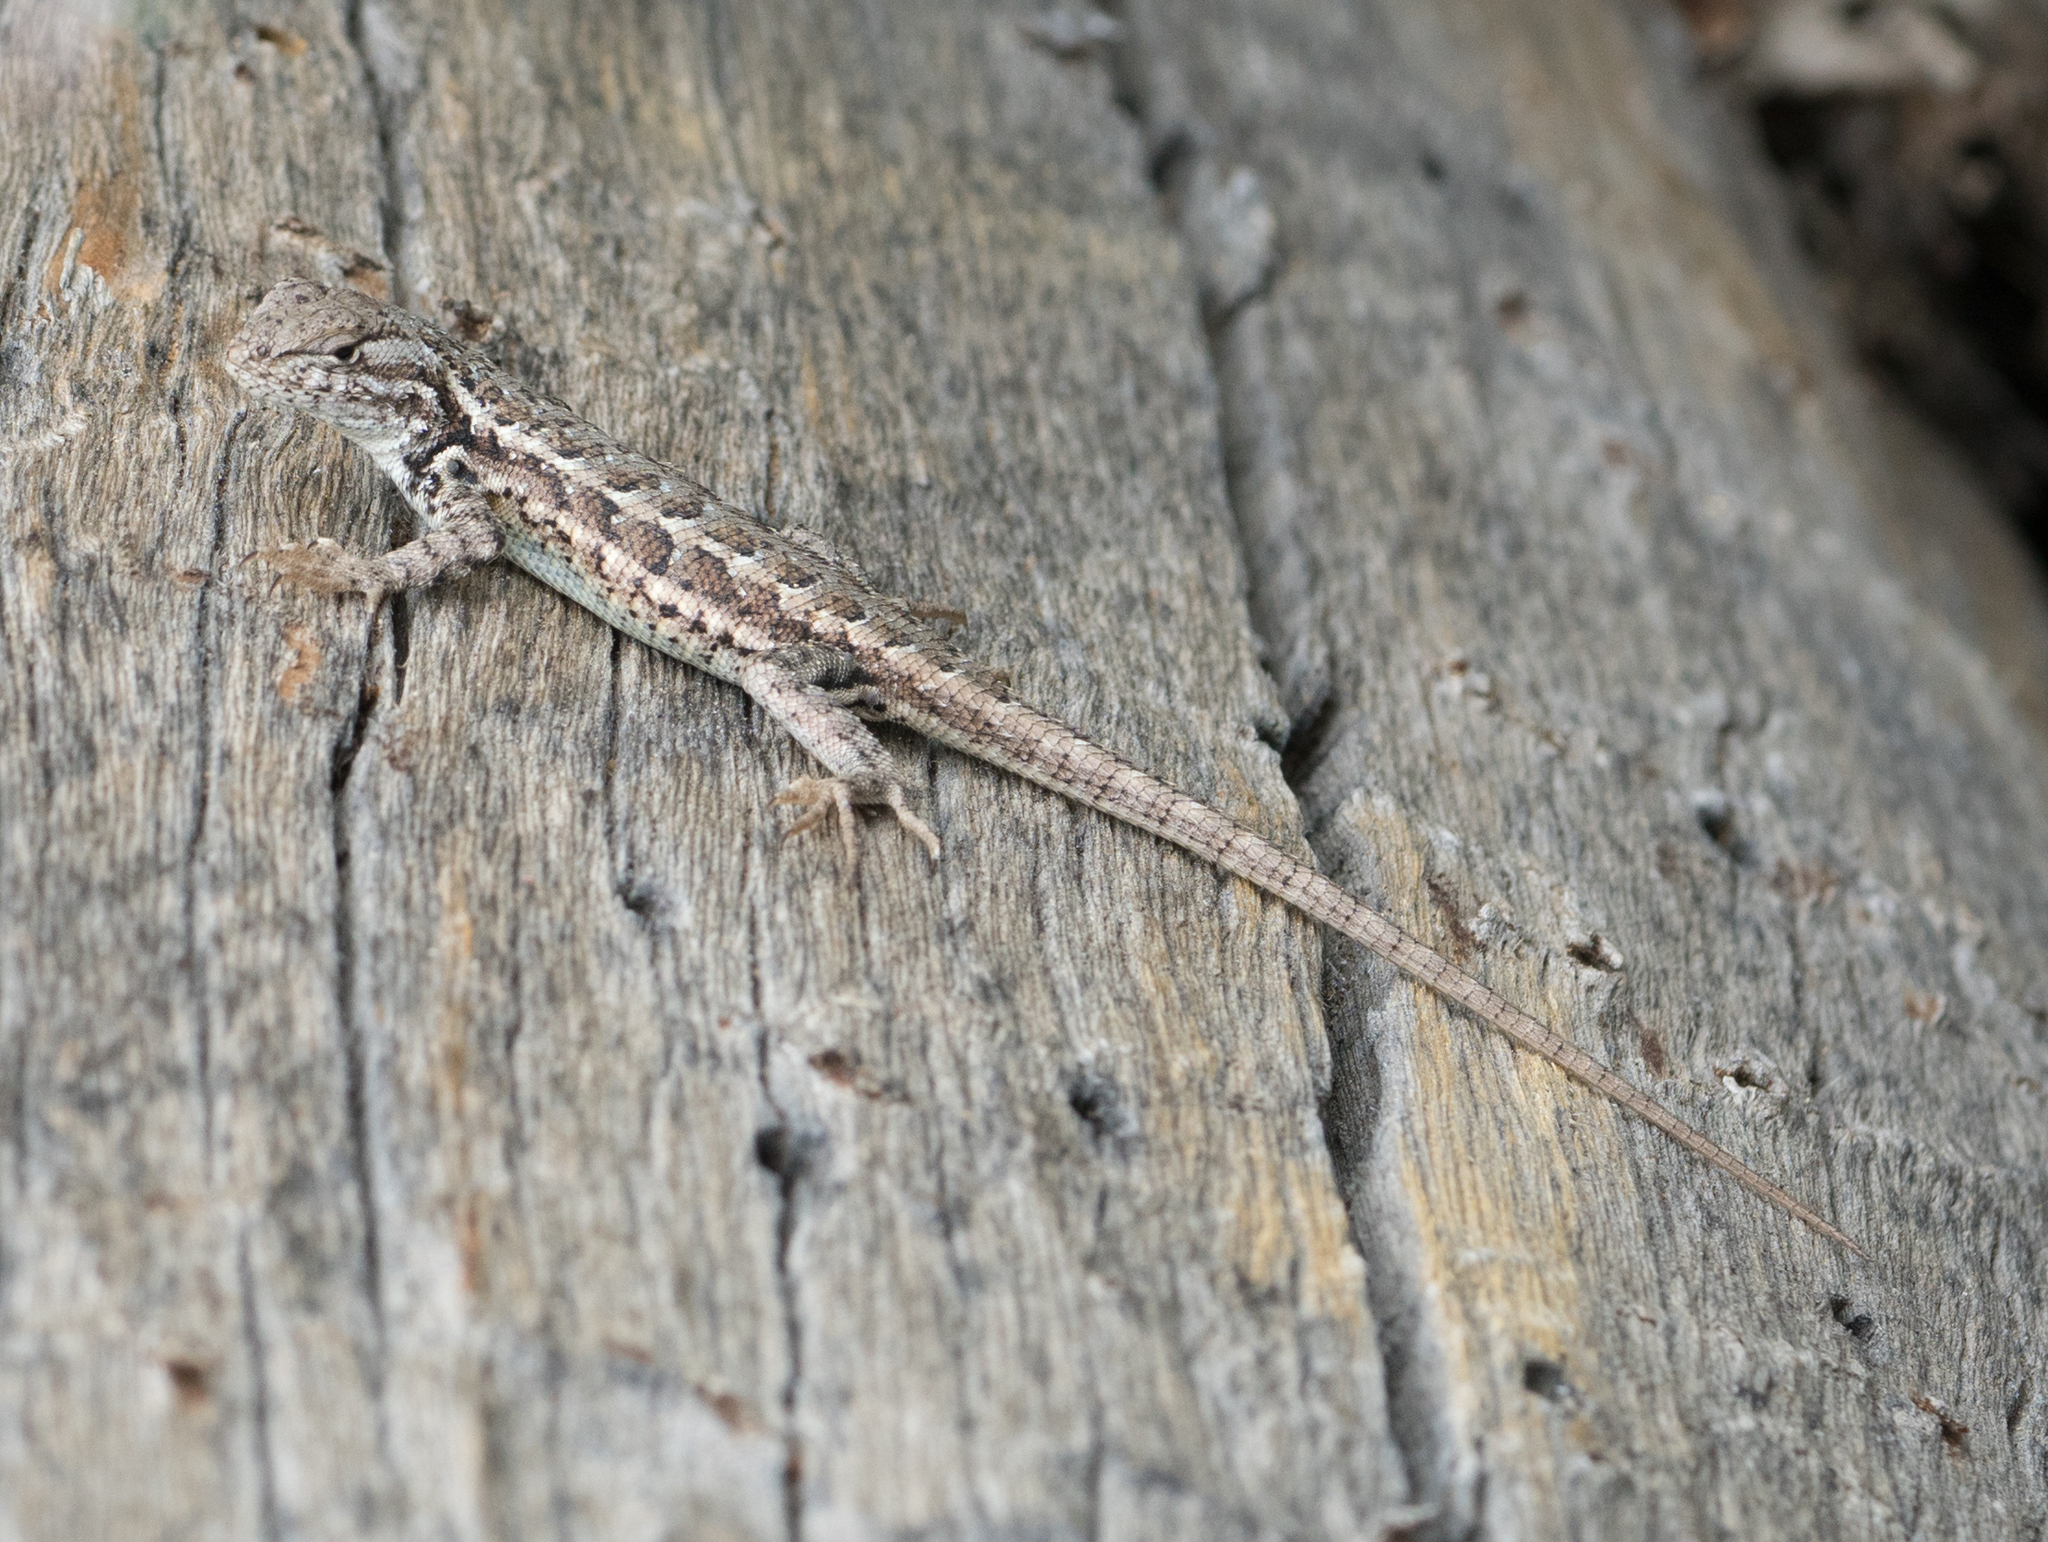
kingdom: Animalia
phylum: Chordata
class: Squamata
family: Phrynosomatidae
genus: Sceloporus
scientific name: Sceloporus graciosus
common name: Sagebrush lizard
